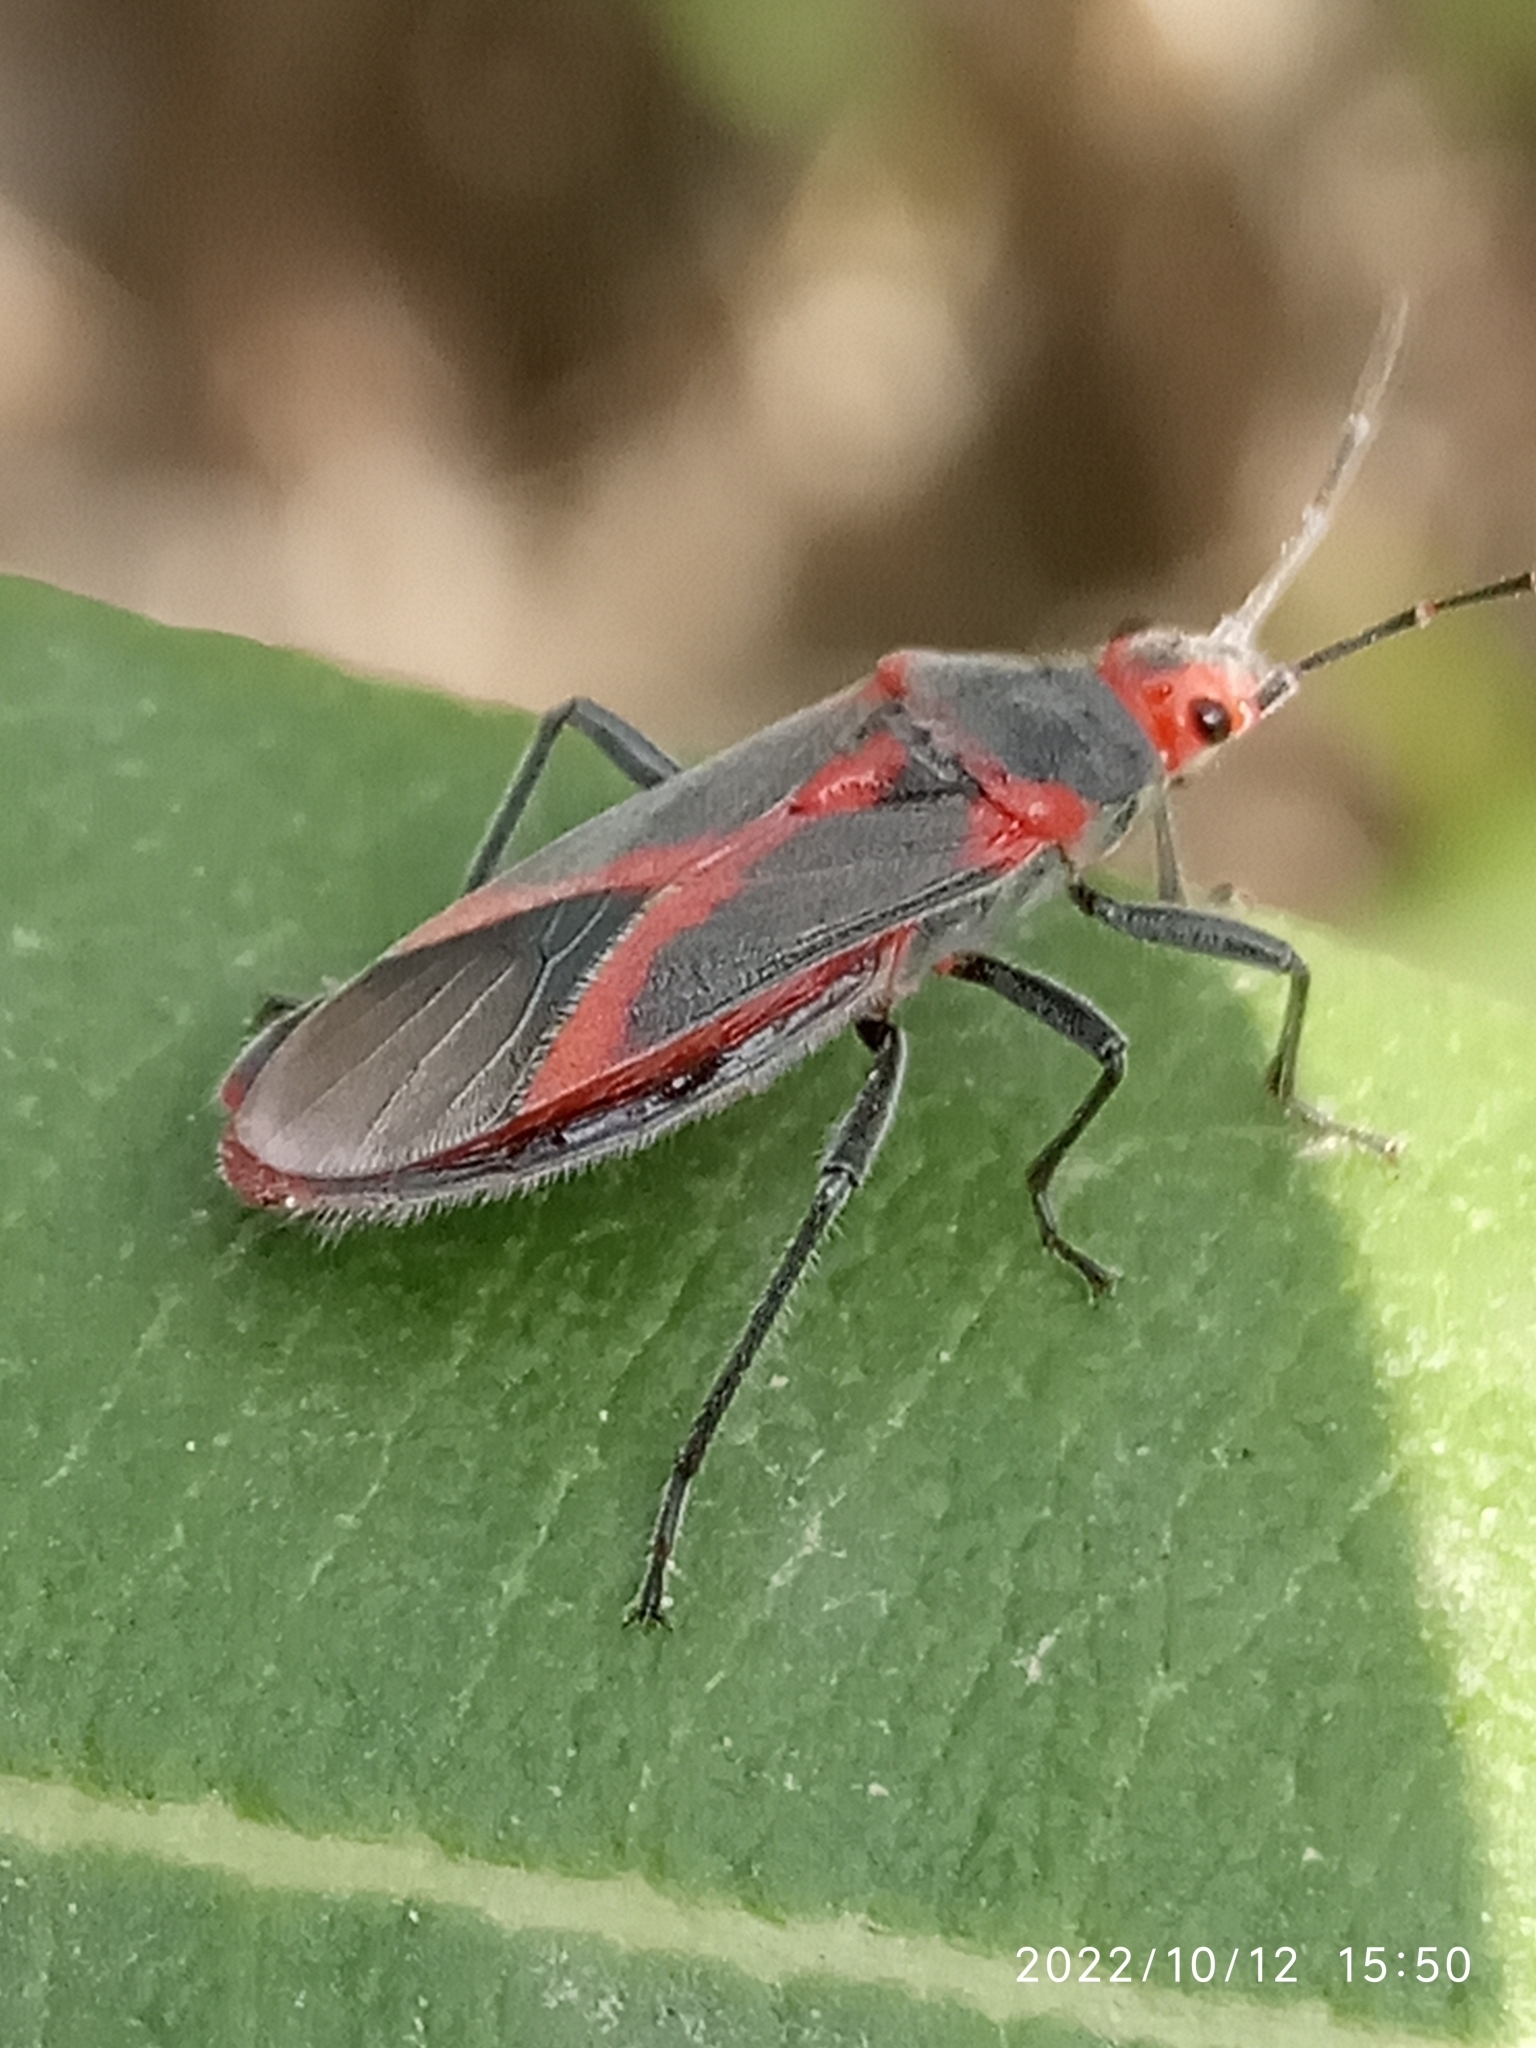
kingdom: Animalia
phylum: Arthropoda
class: Insecta
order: Hemiptera
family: Lygaeidae
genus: Caenocoris
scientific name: Caenocoris nerii
